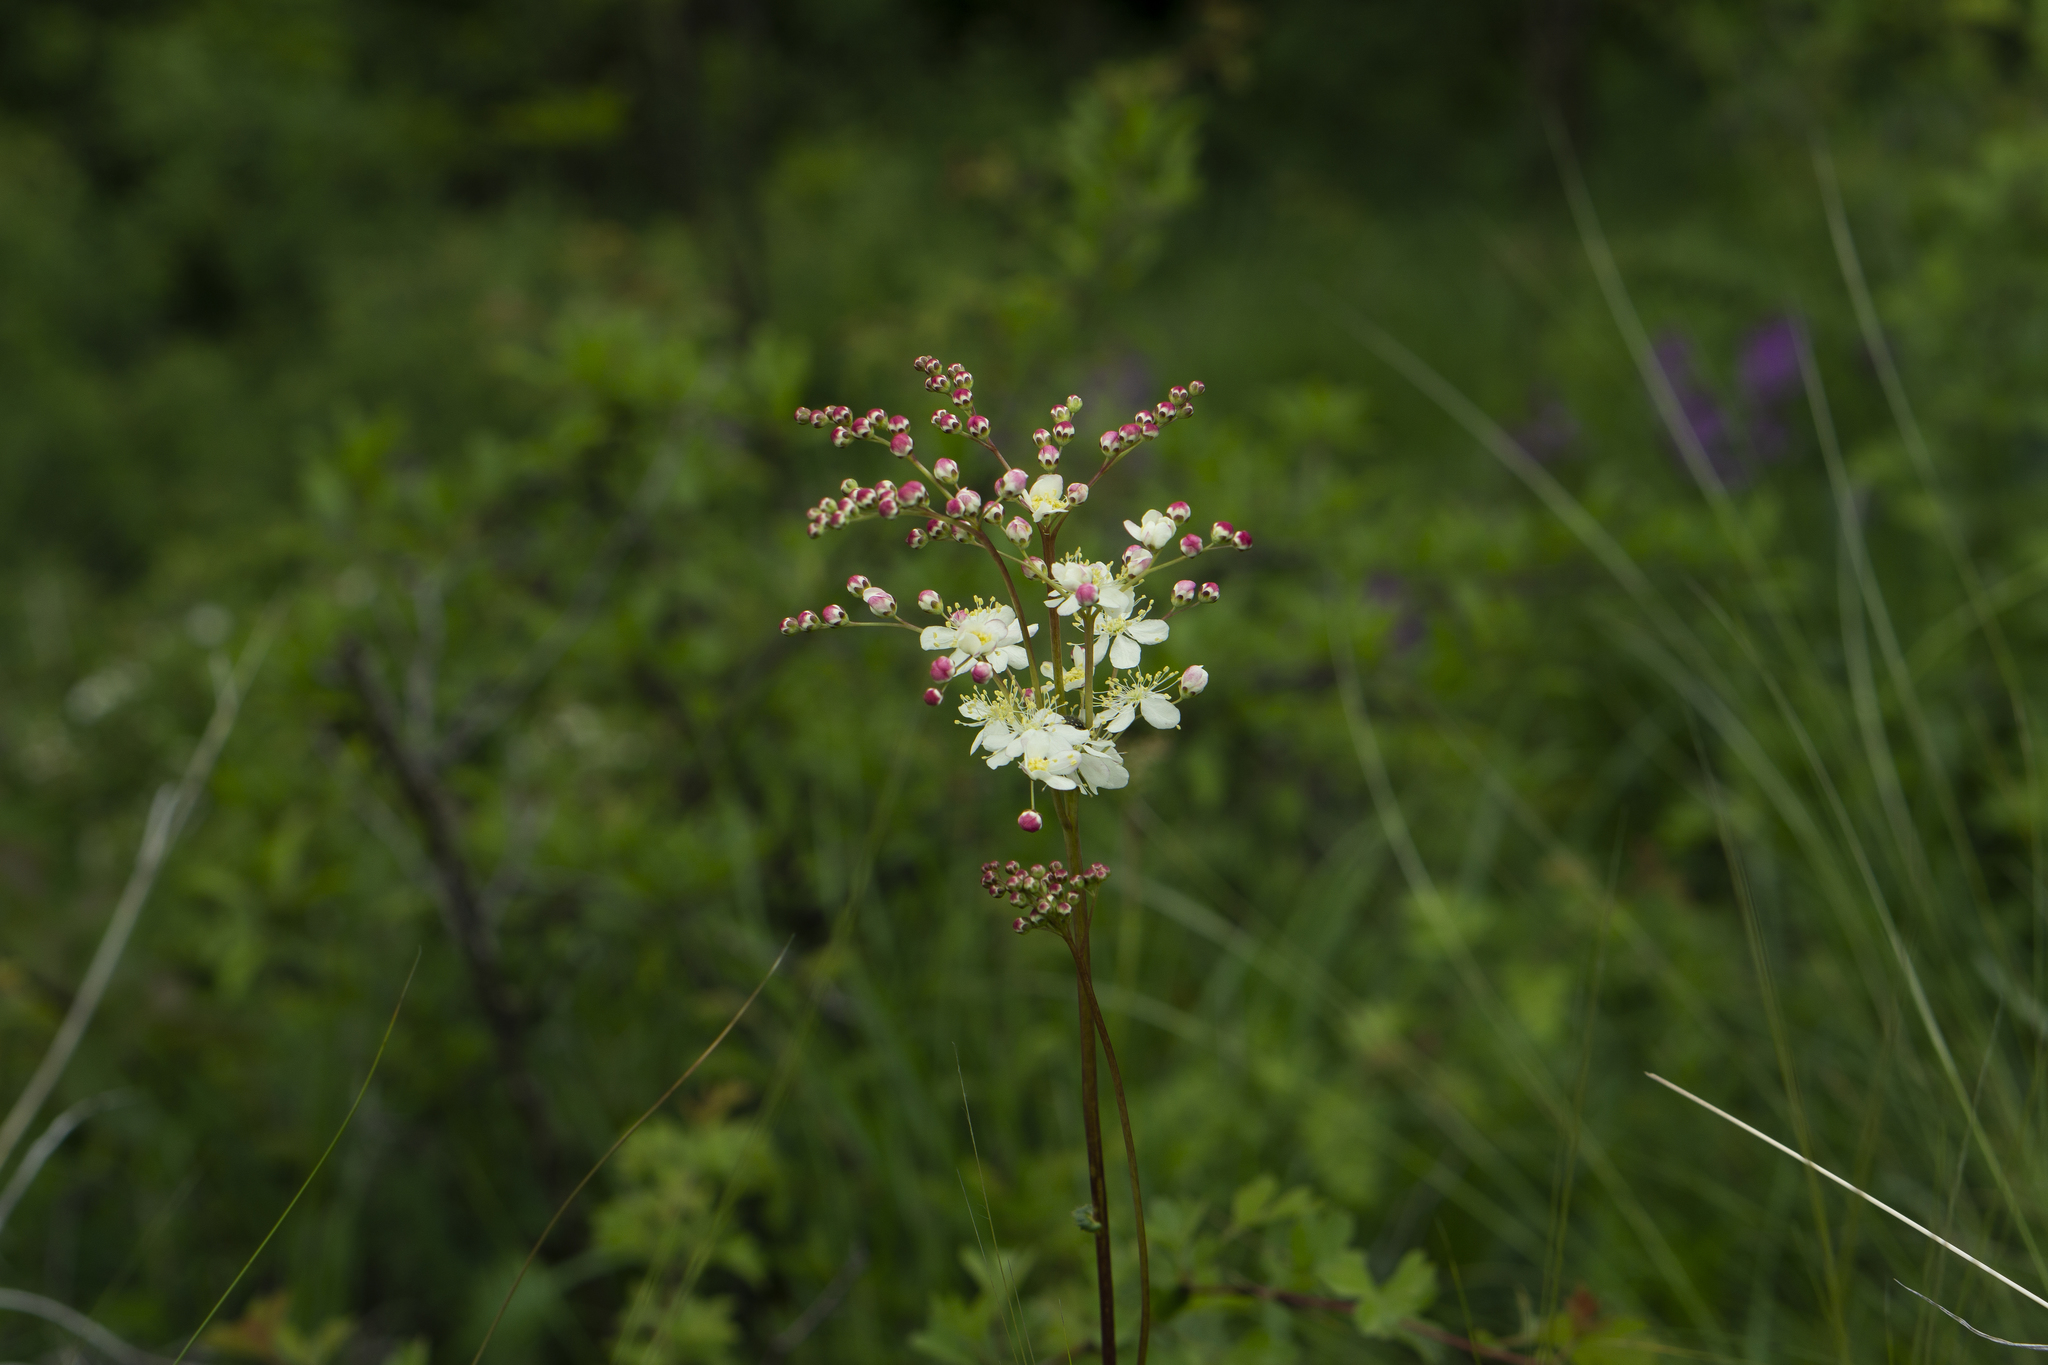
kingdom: Plantae
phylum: Tracheophyta
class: Magnoliopsida
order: Rosales
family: Rosaceae
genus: Filipendula
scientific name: Filipendula vulgaris
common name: Dropwort
